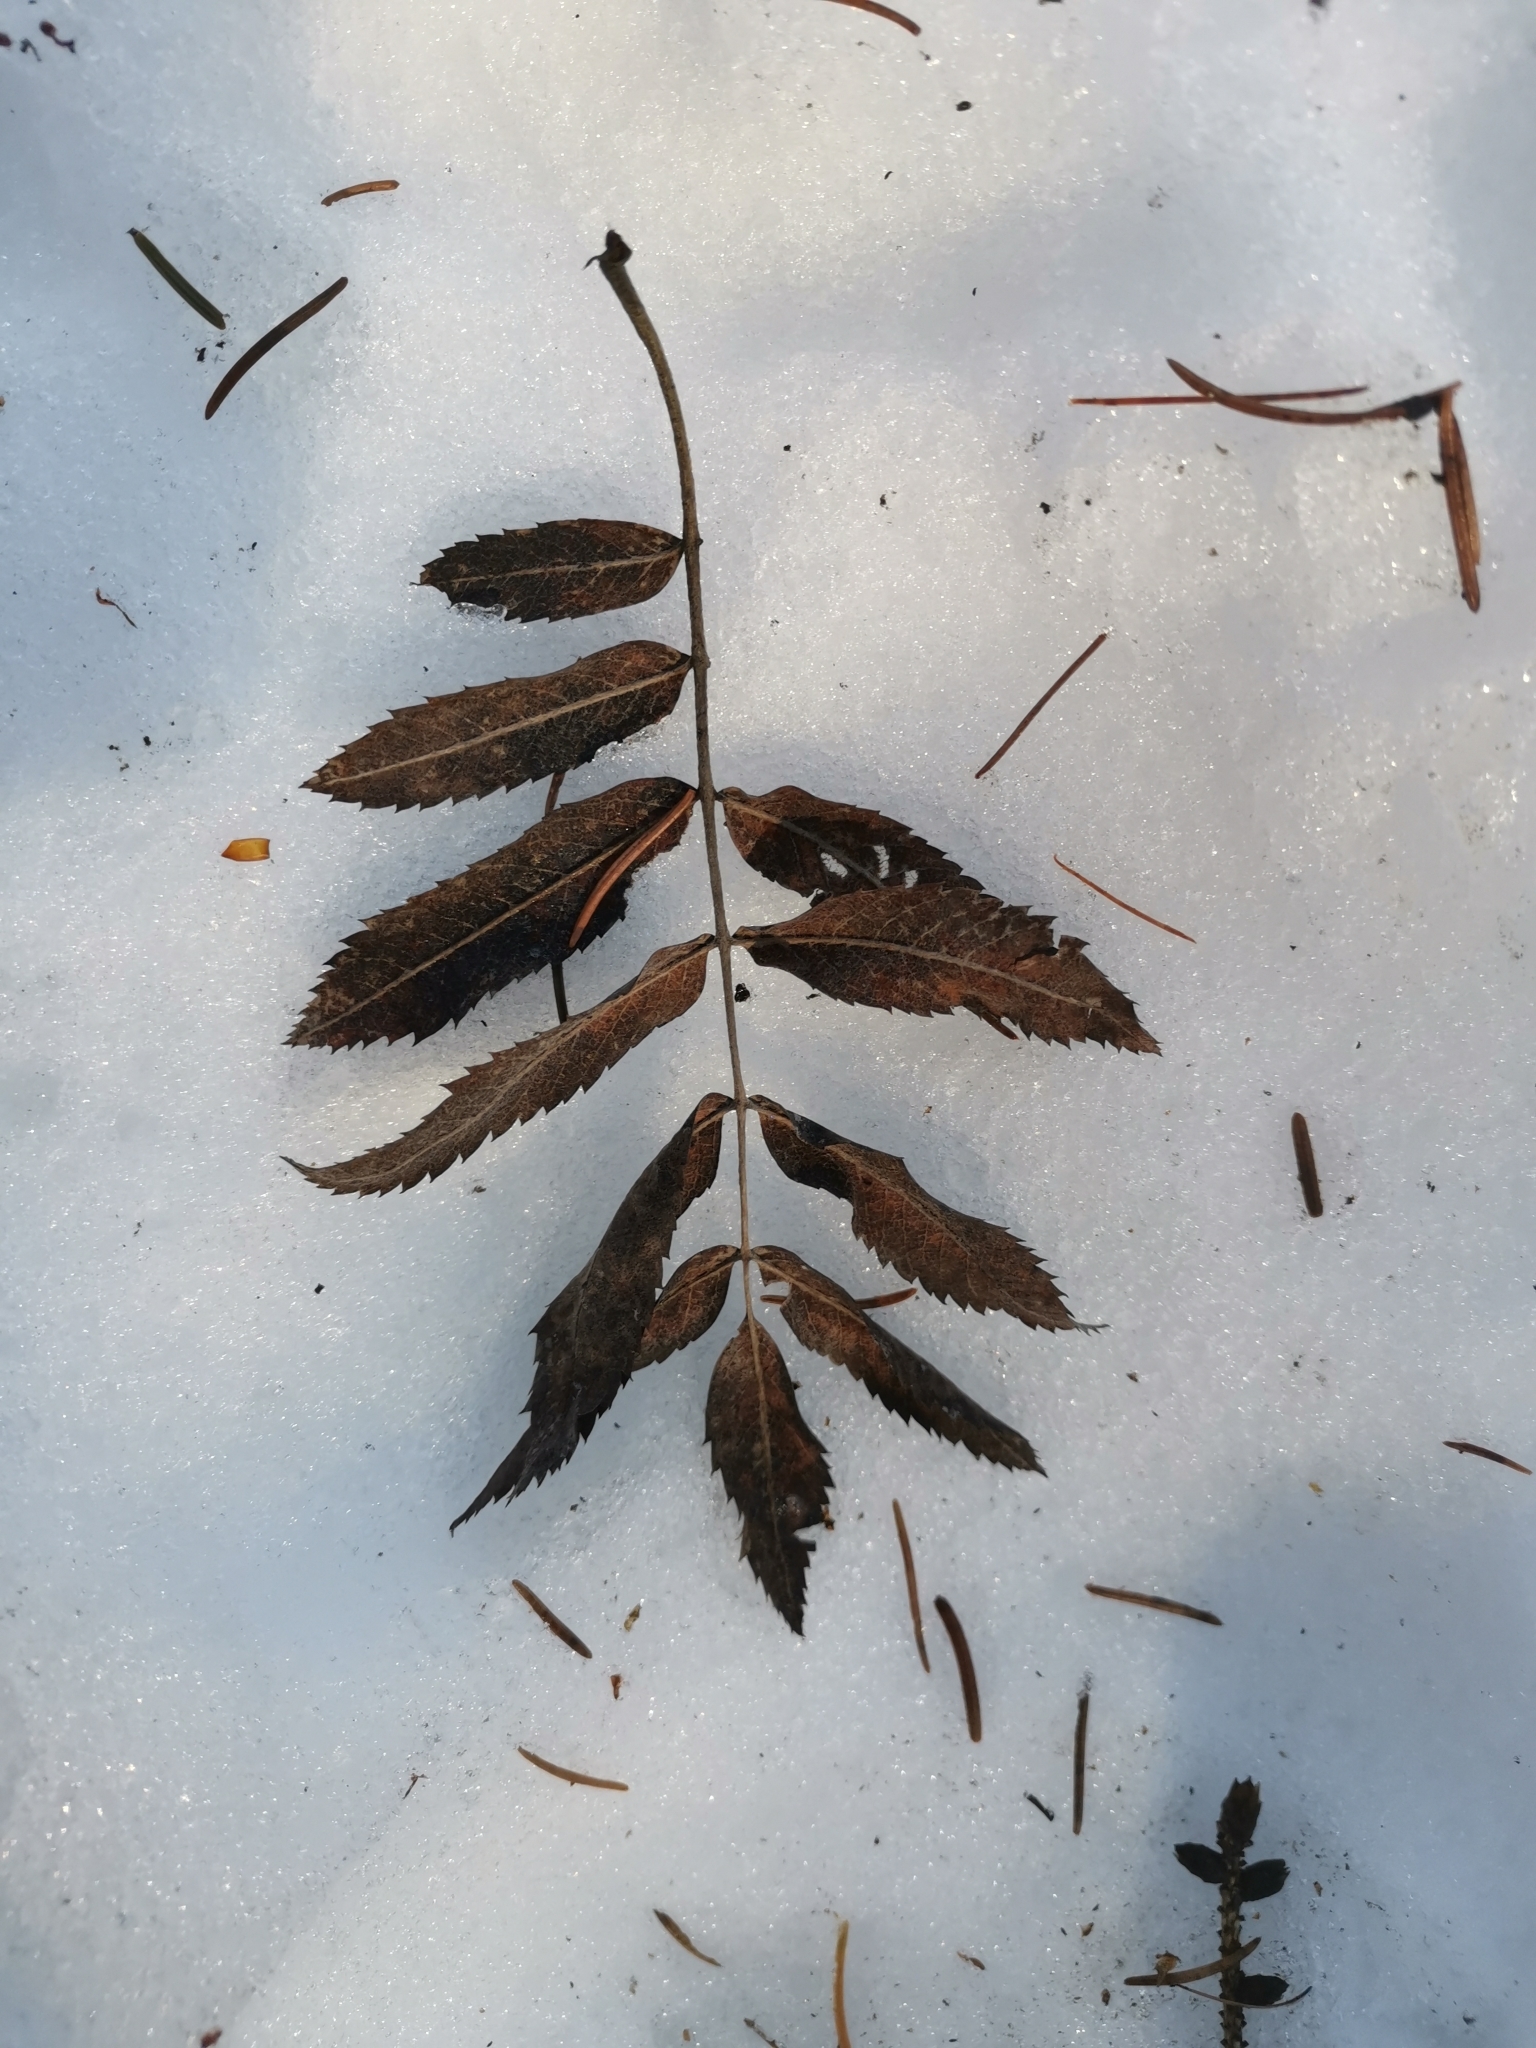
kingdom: Plantae
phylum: Tracheophyta
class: Magnoliopsida
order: Rosales
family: Rosaceae
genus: Sorbus
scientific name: Sorbus aucuparia
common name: Rowan
